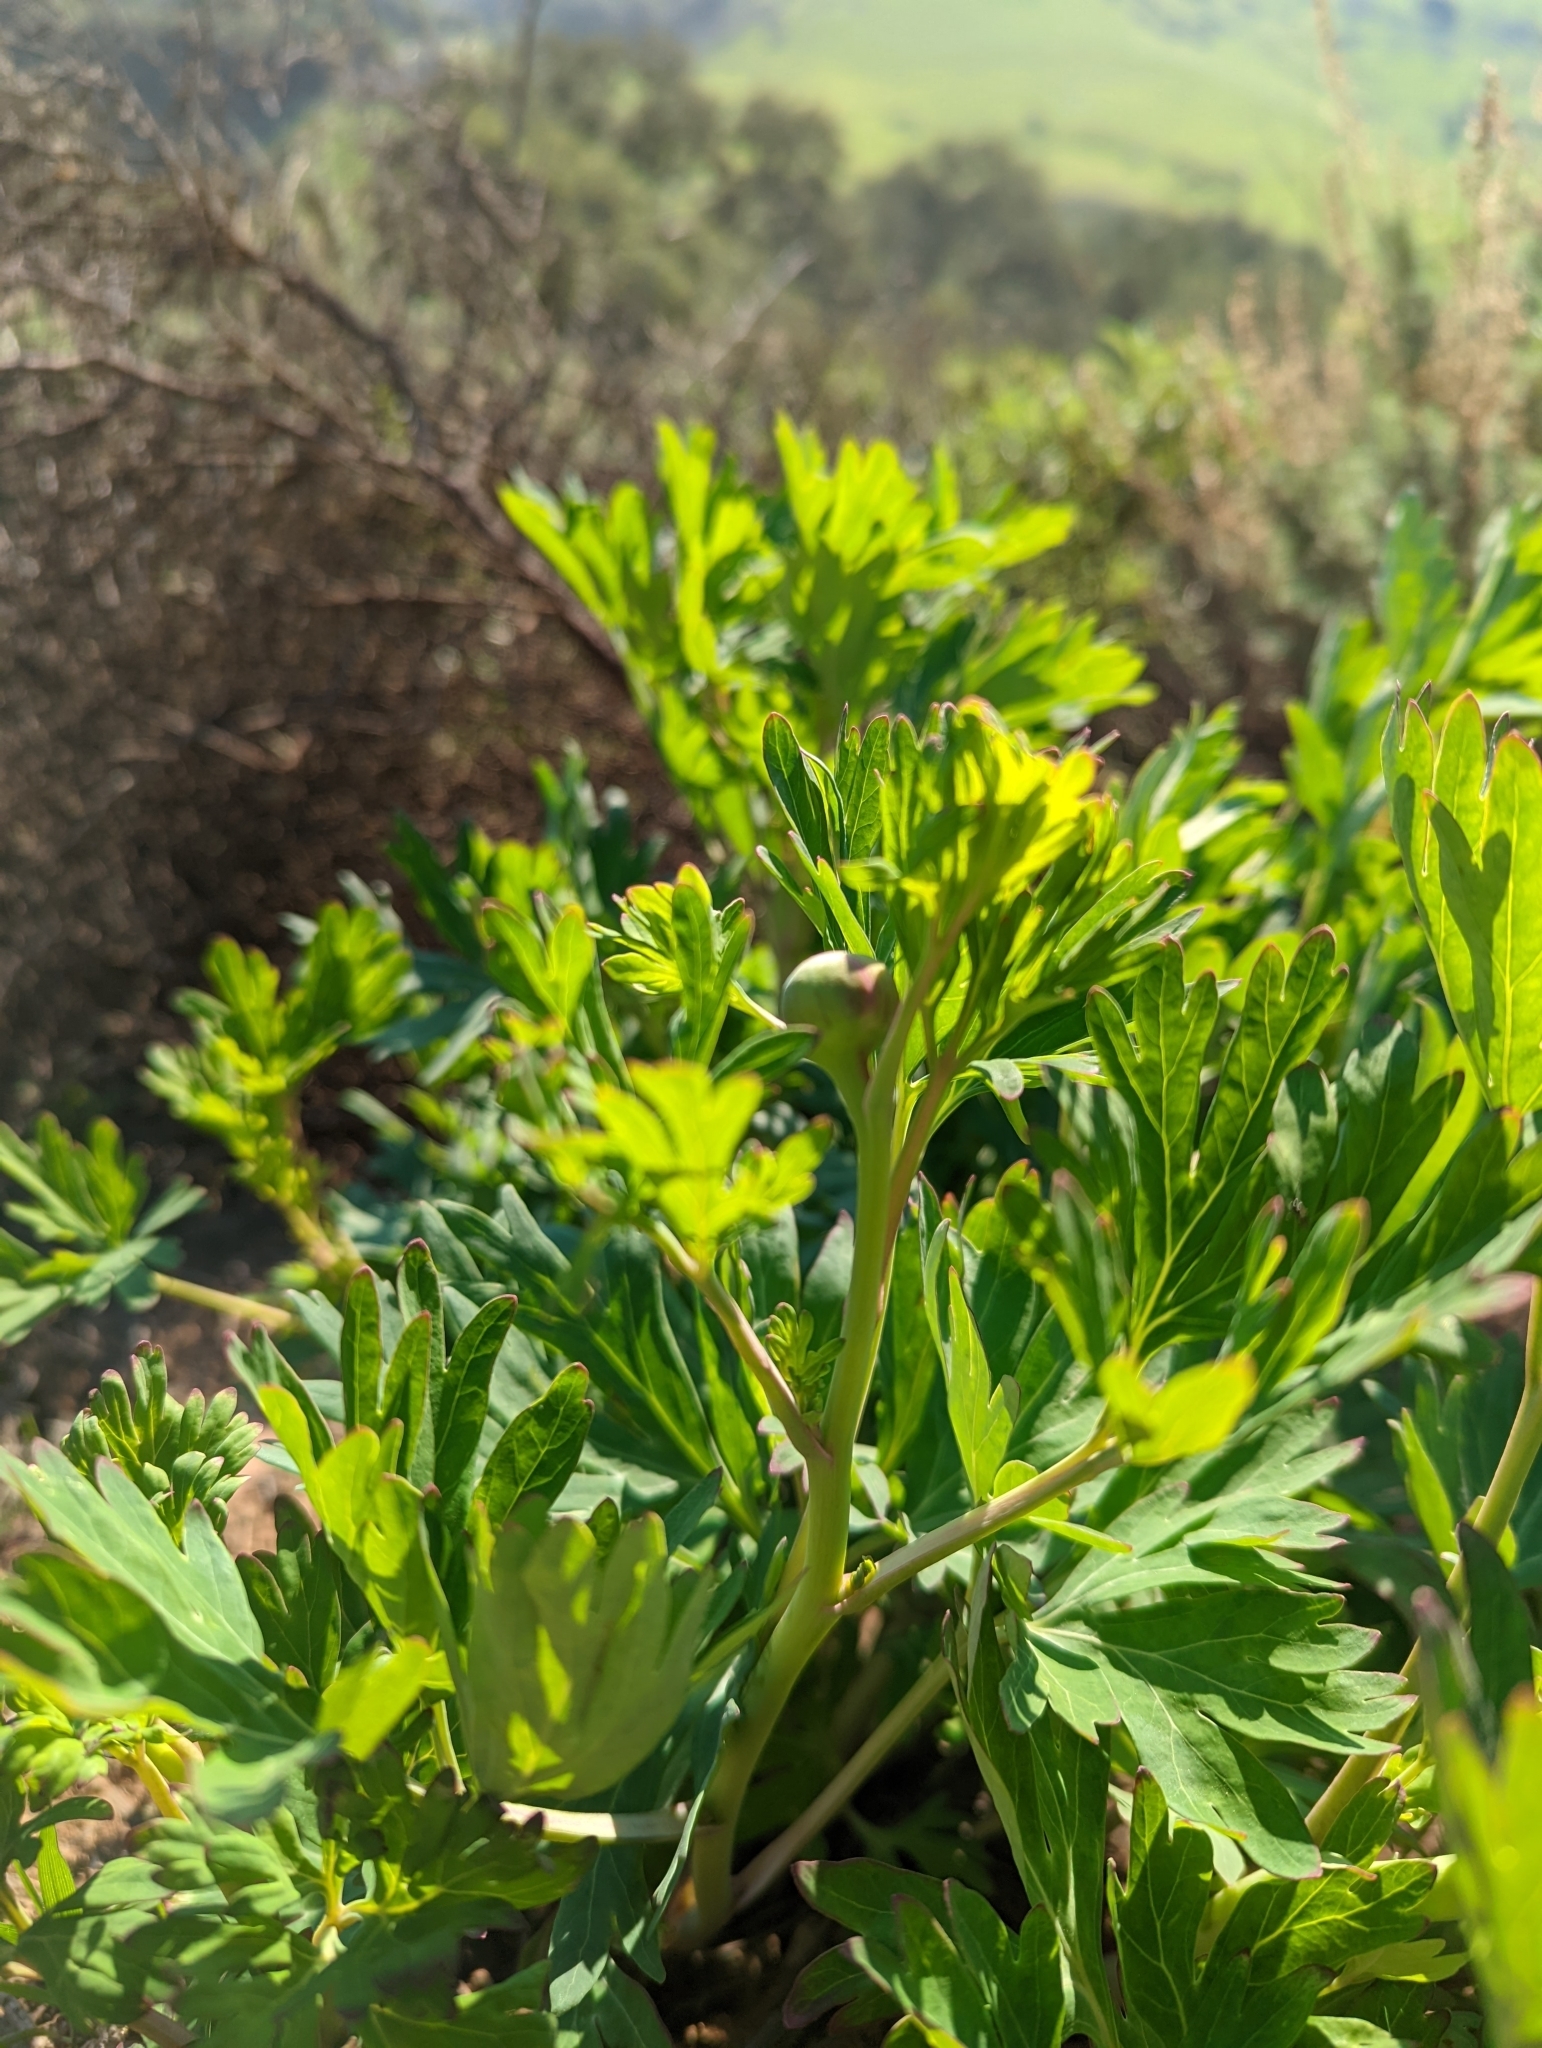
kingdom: Plantae
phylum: Tracheophyta
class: Magnoliopsida
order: Saxifragales
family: Paeoniaceae
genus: Paeonia
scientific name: Paeonia californica
